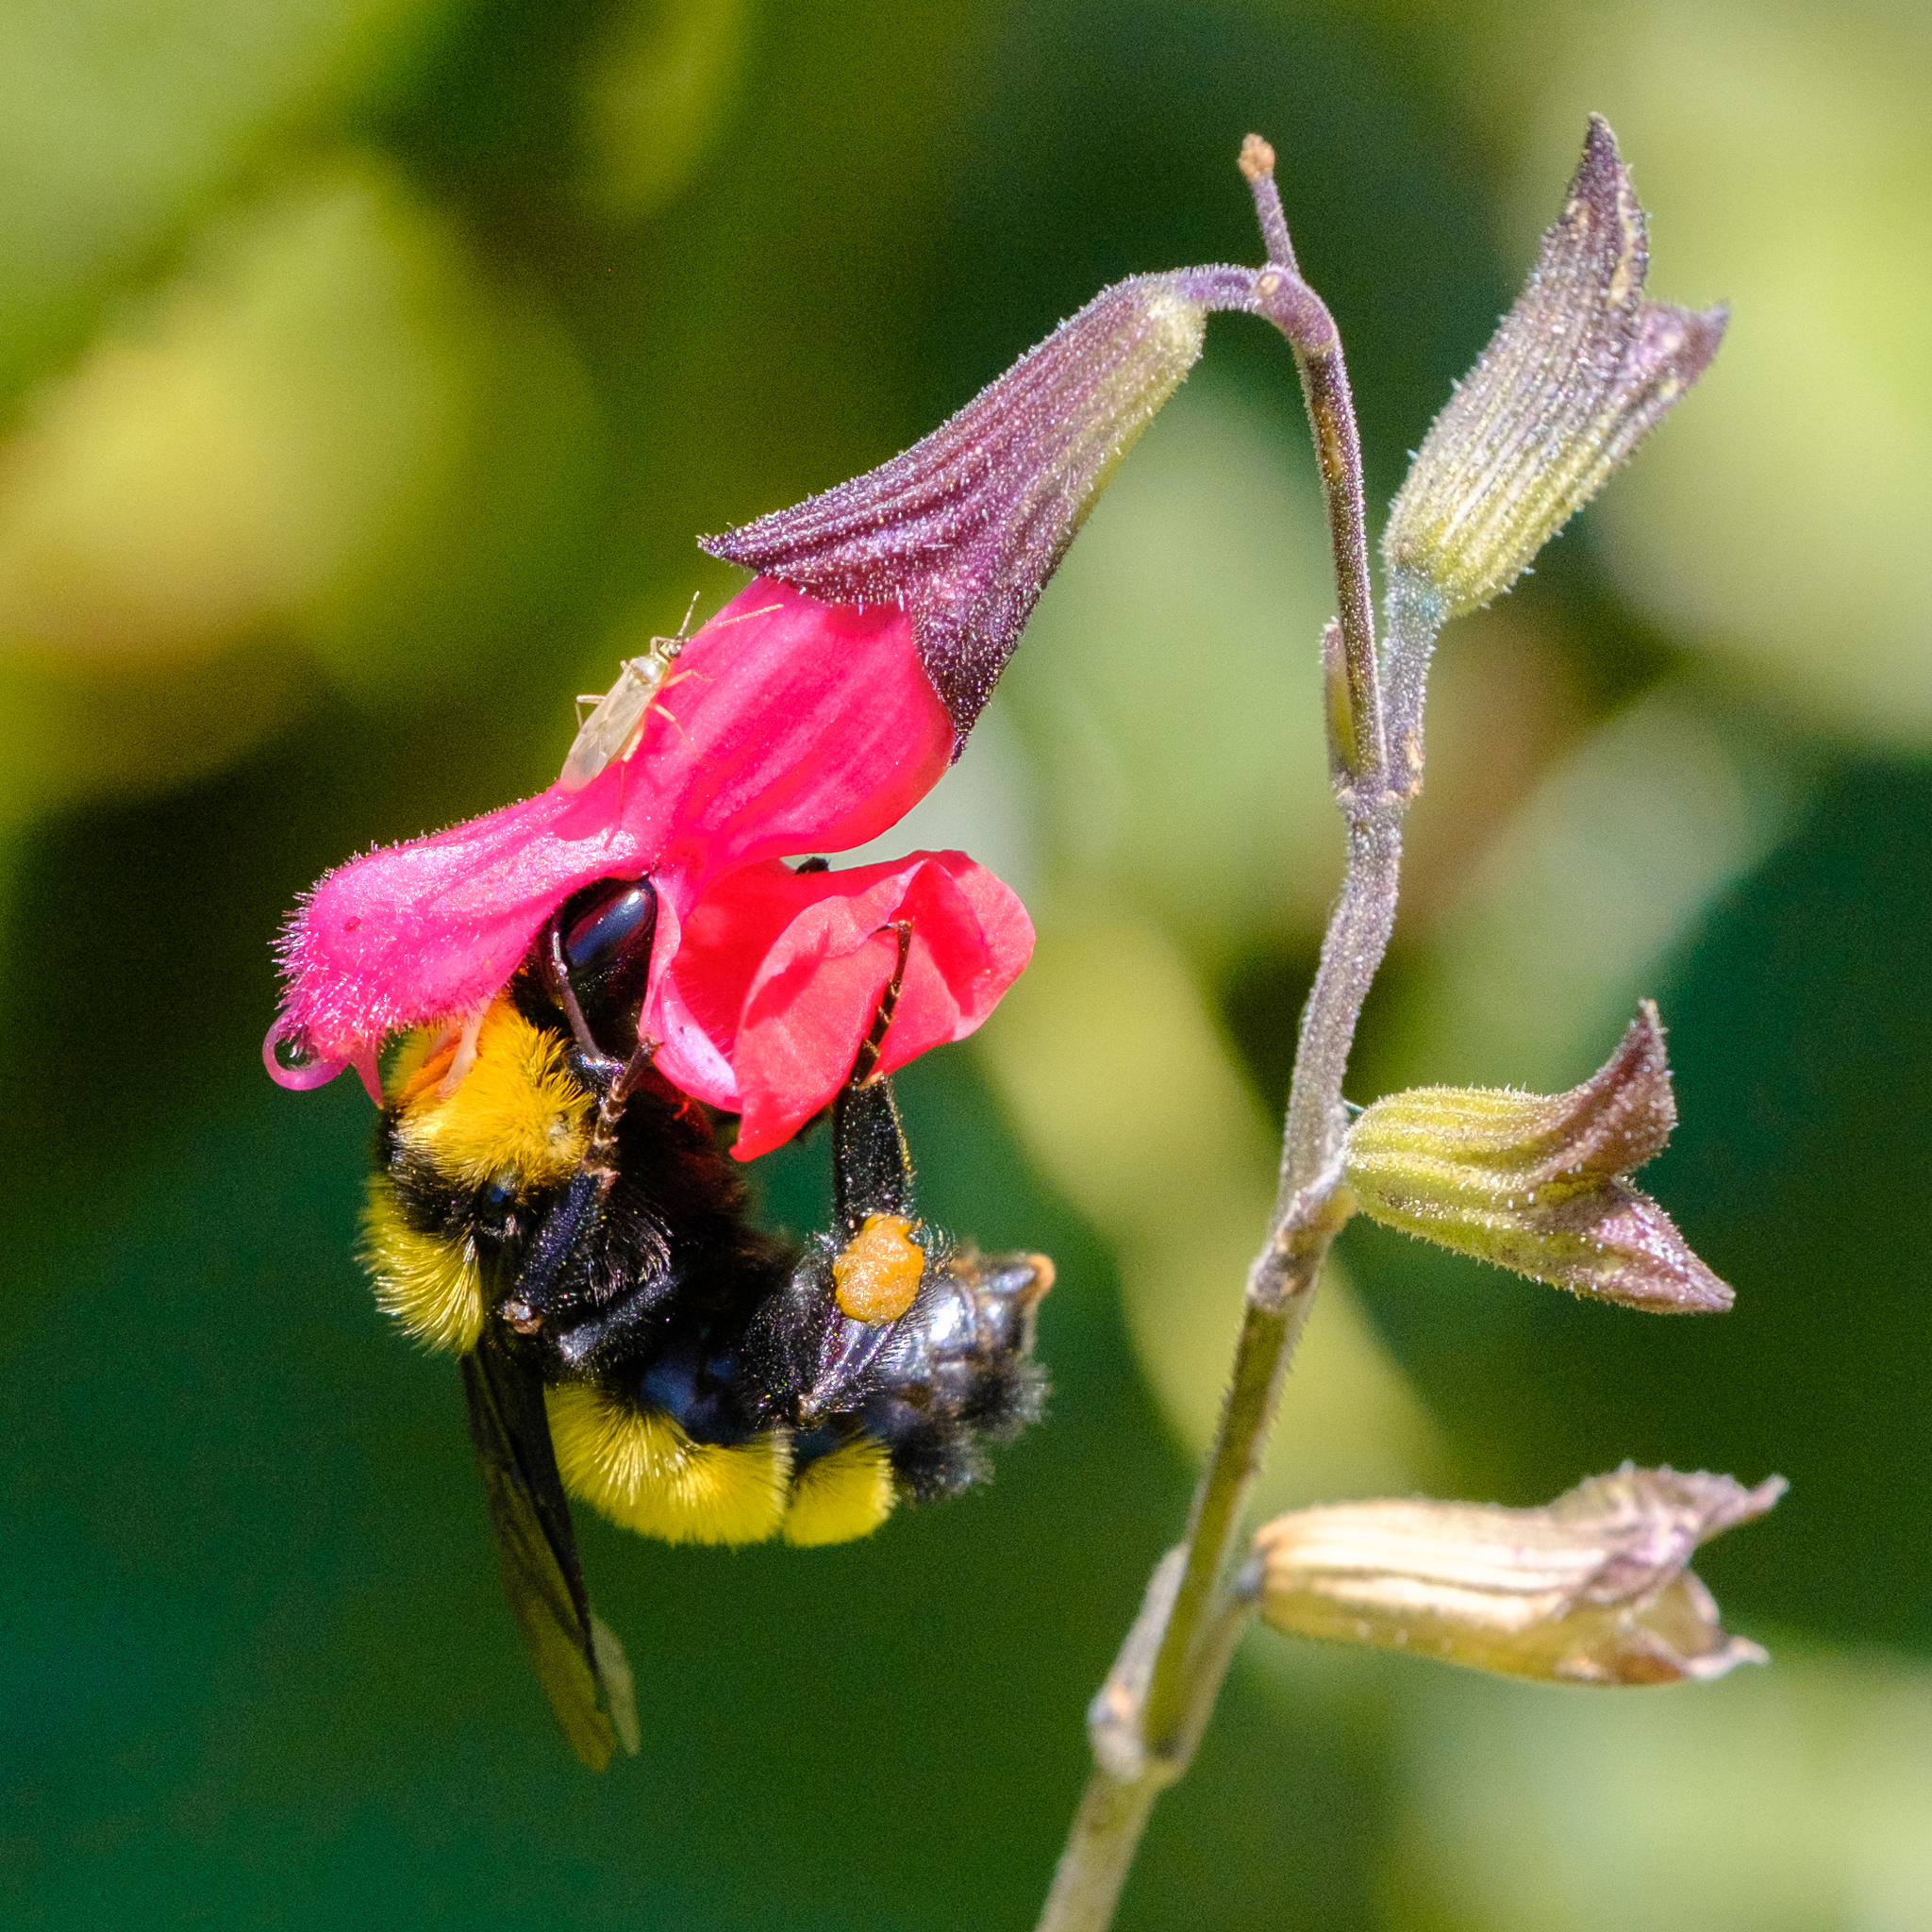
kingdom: Animalia
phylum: Arthropoda
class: Insecta
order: Hymenoptera
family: Apidae
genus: Bombus
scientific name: Bombus sonorus
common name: Sonoran bumble bee
